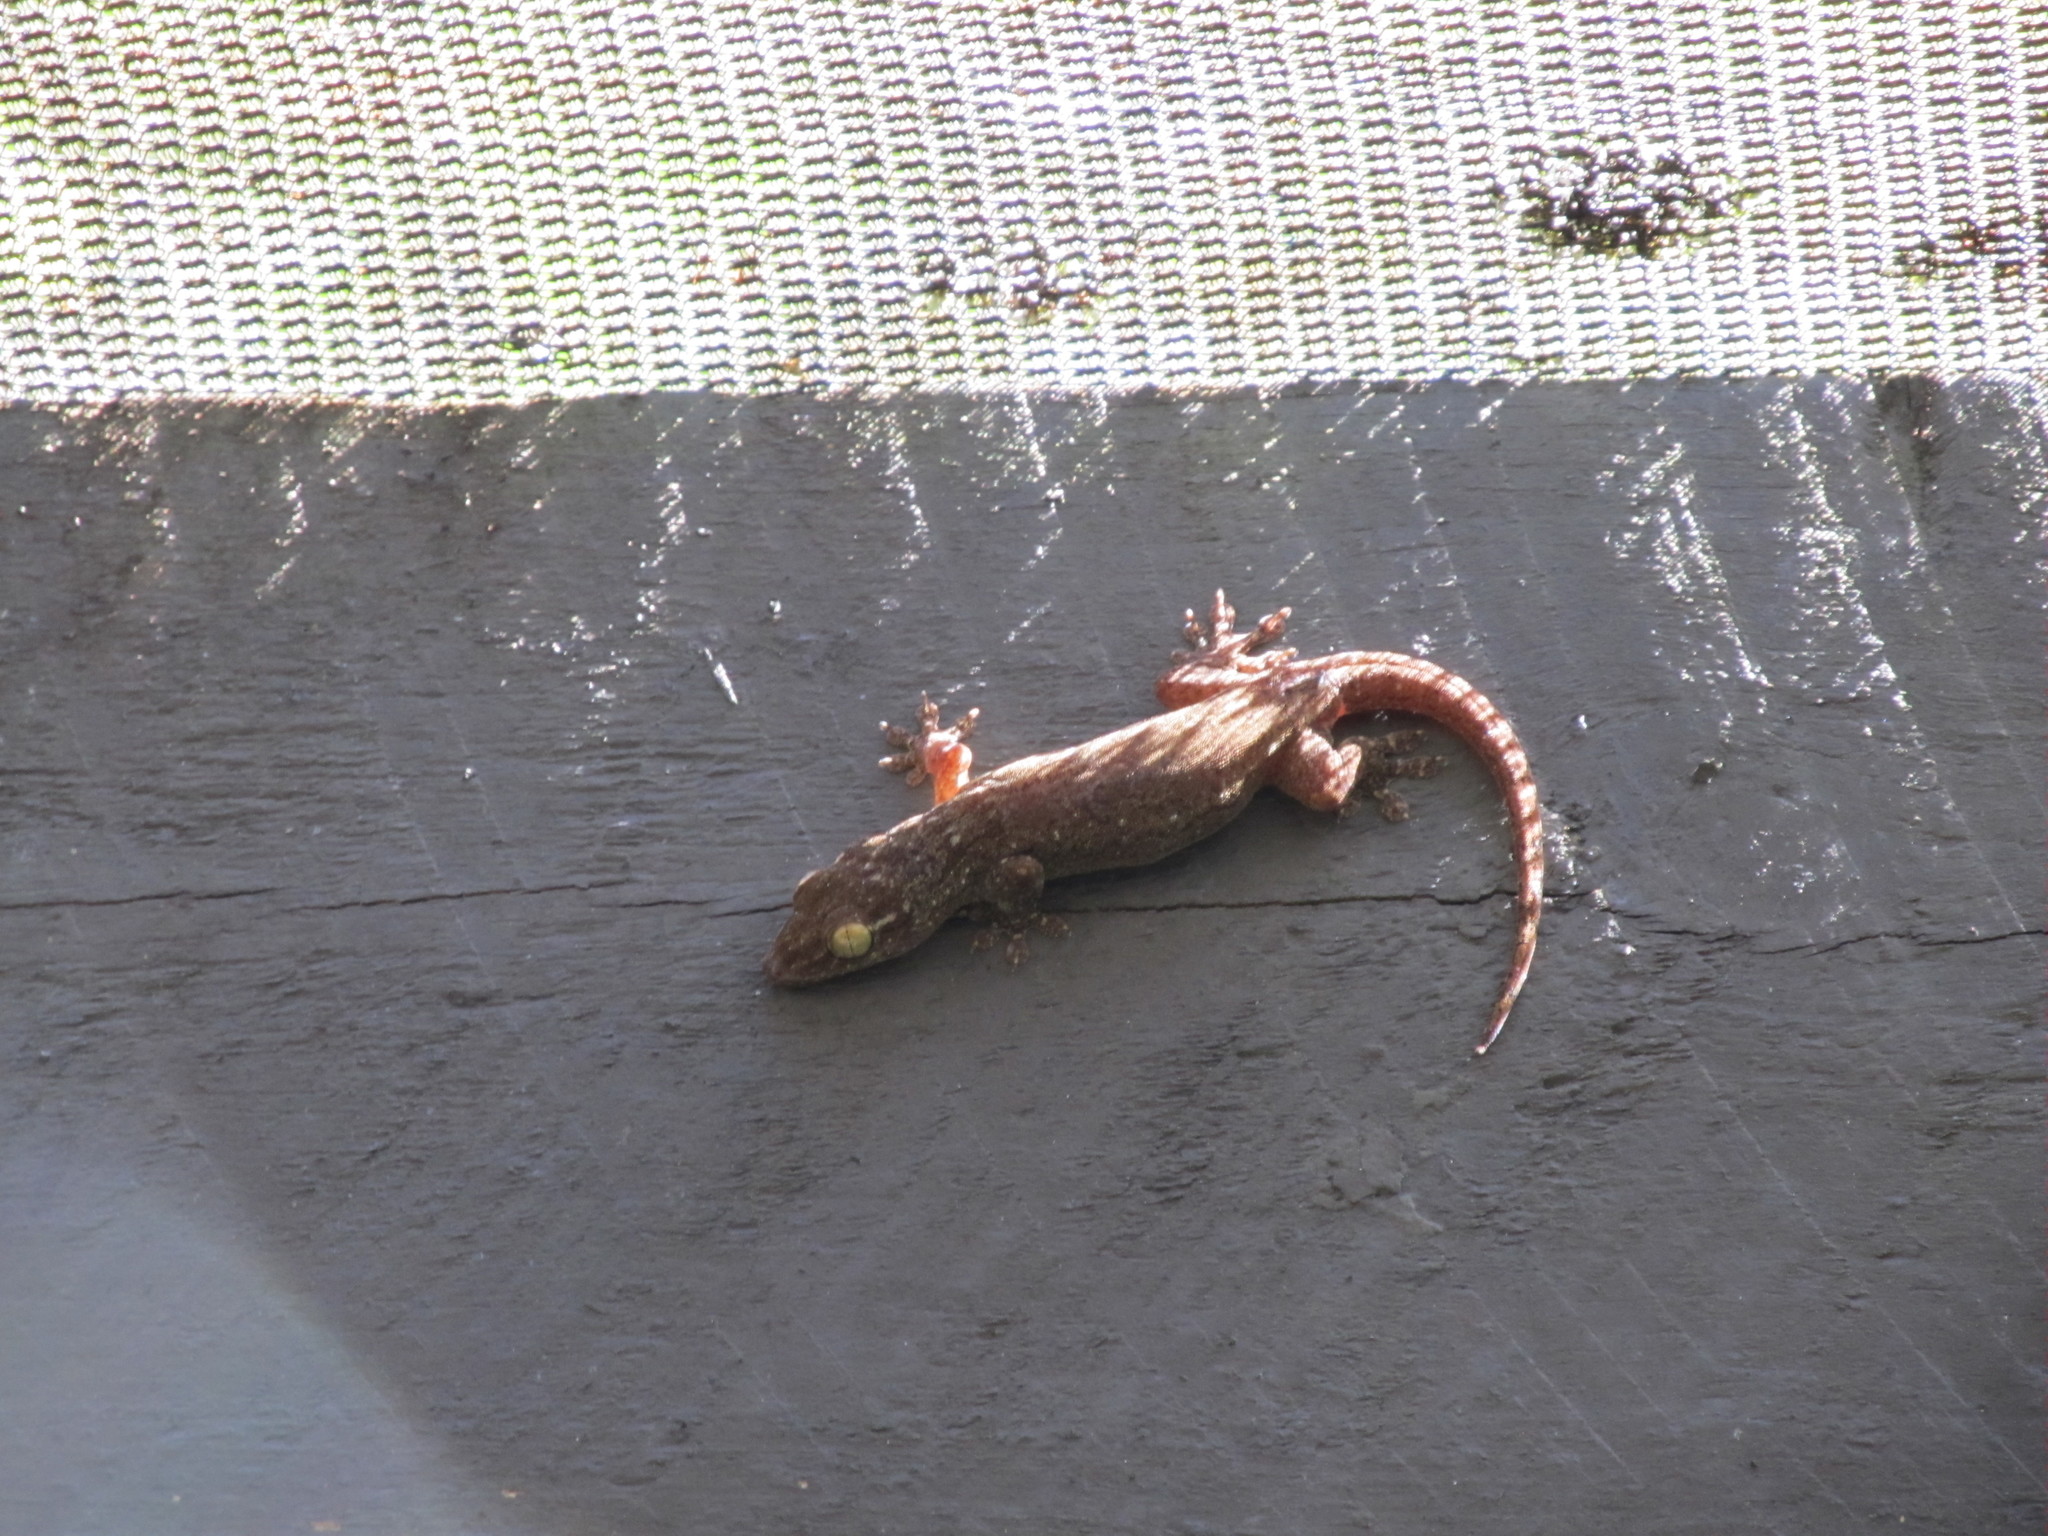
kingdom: Animalia
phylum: Chordata
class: Squamata
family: Gekkonidae
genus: Gehyra
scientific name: Gehyra oceanica
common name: Pacific dtella
